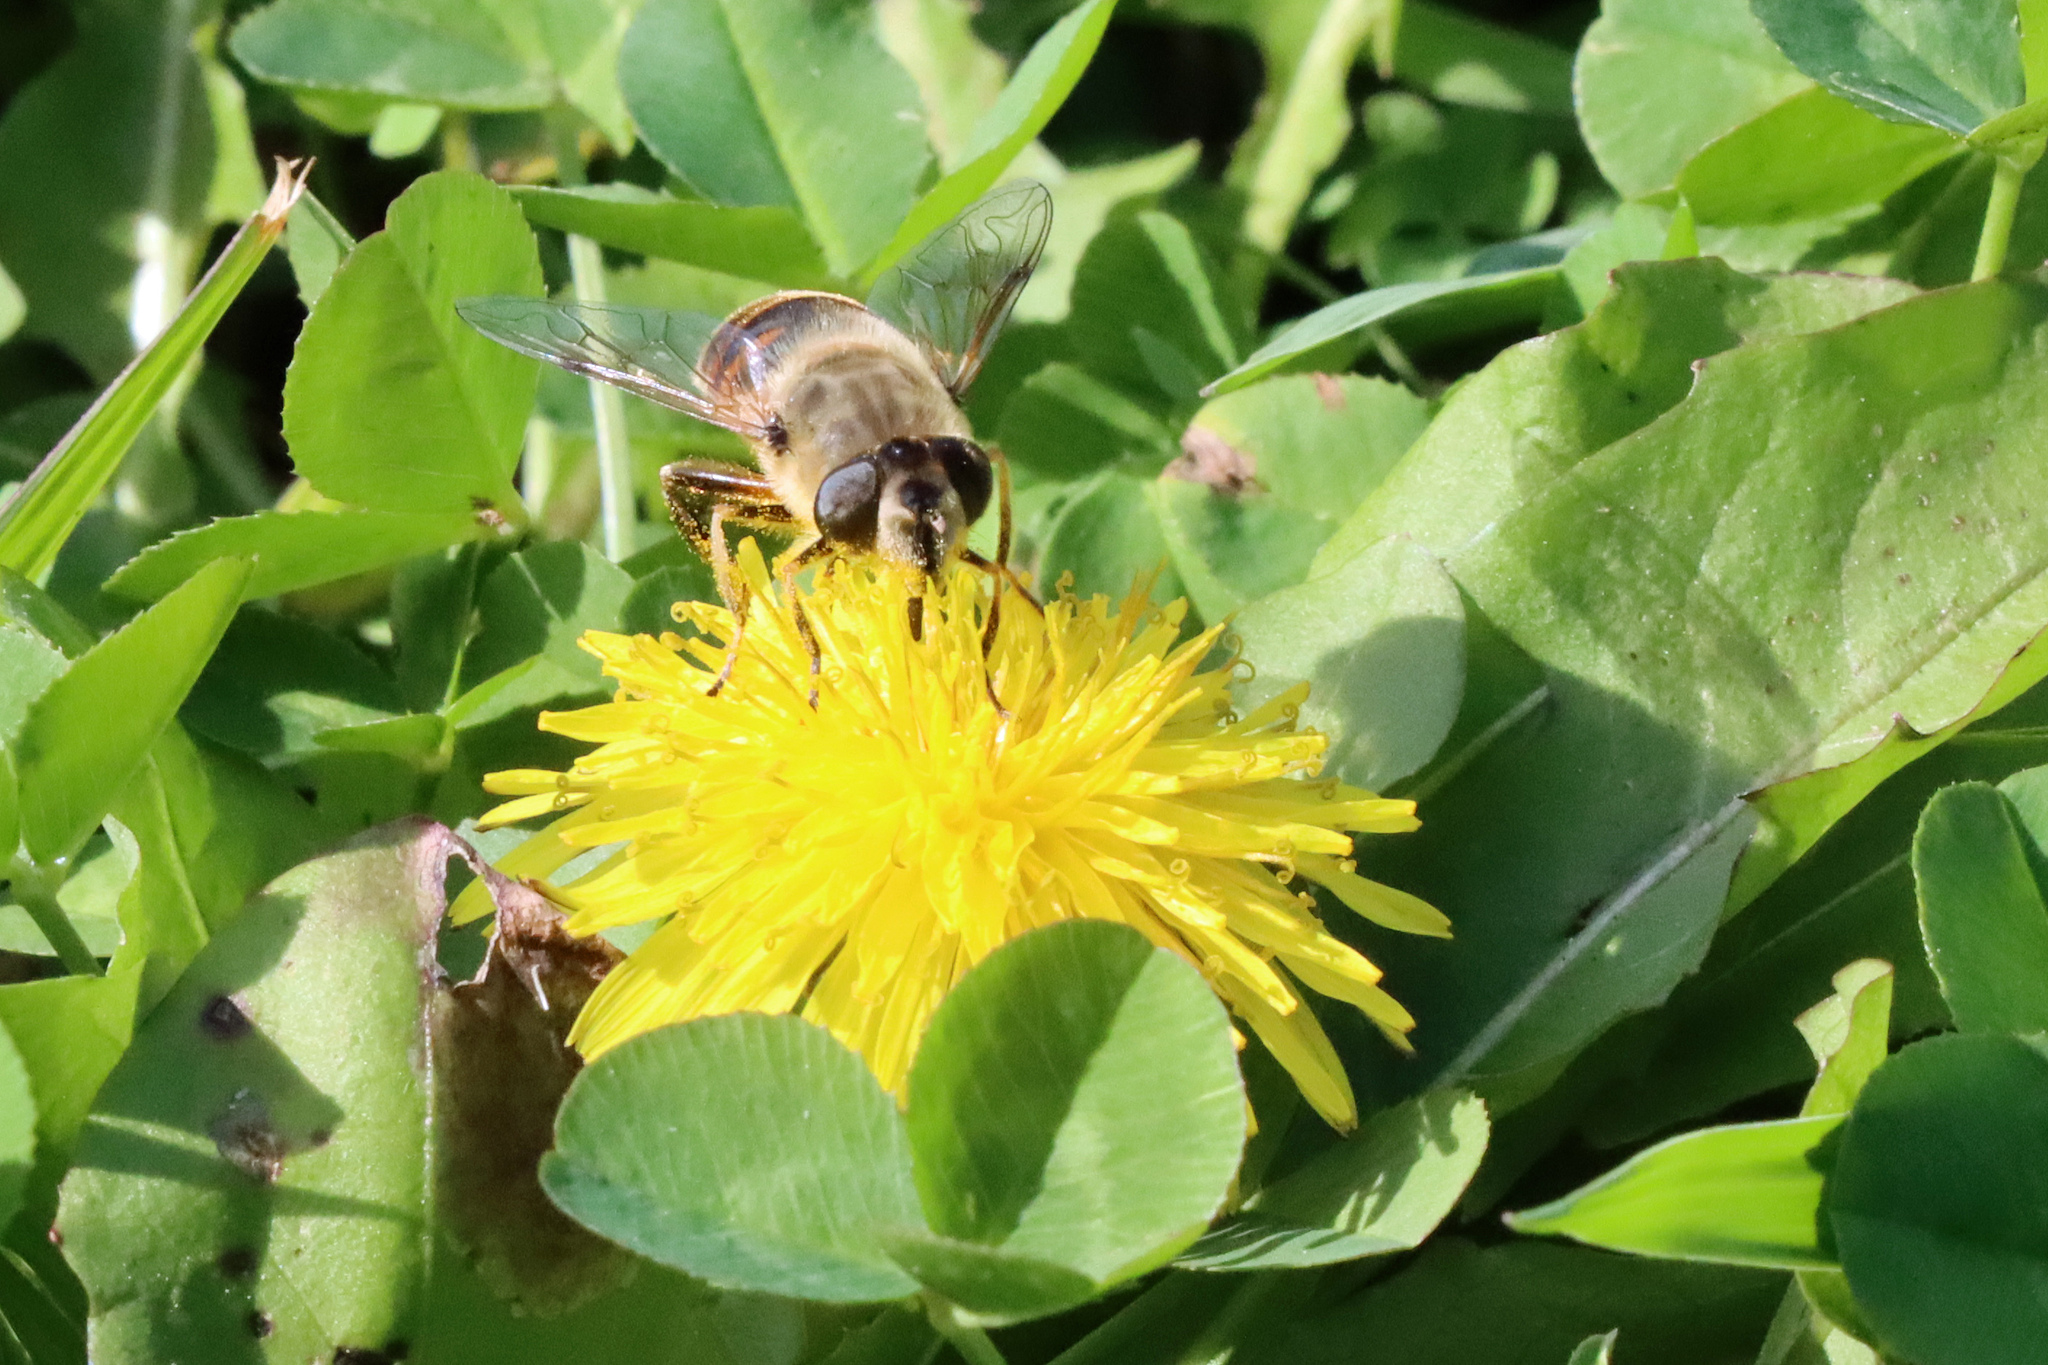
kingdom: Animalia
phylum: Arthropoda
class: Insecta
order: Diptera
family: Syrphidae
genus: Eristalis
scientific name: Eristalis tenax
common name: Drone fly
